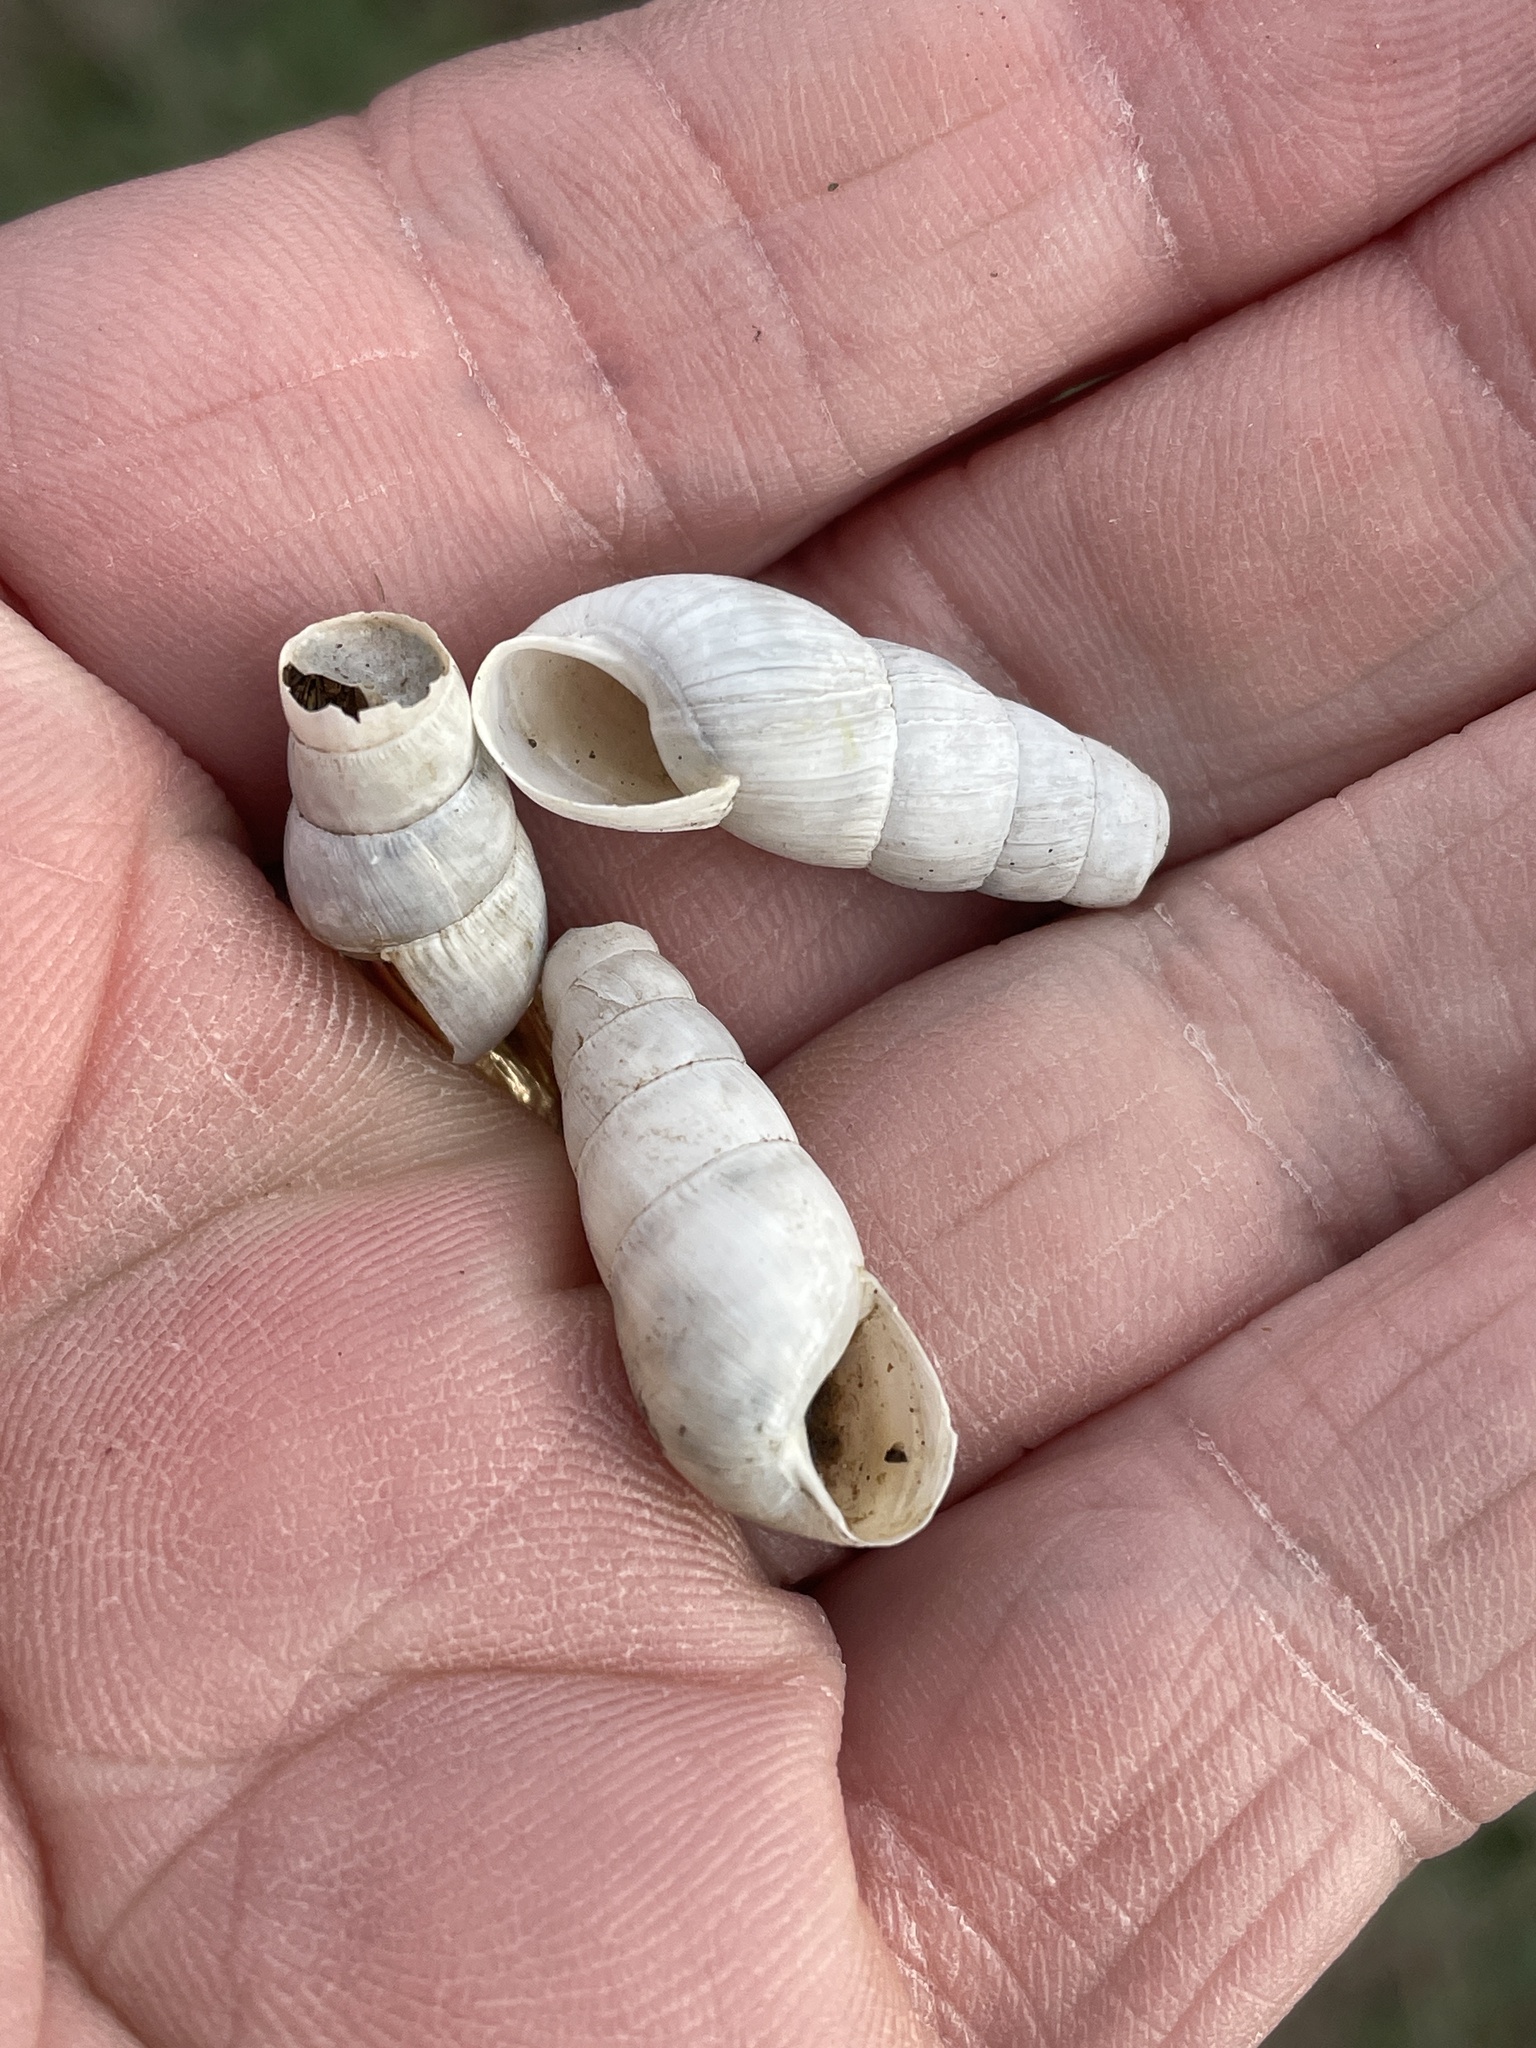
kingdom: Animalia
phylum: Mollusca
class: Gastropoda
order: Stylommatophora
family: Achatinidae
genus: Rumina
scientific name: Rumina decollata
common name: Decollate snail
